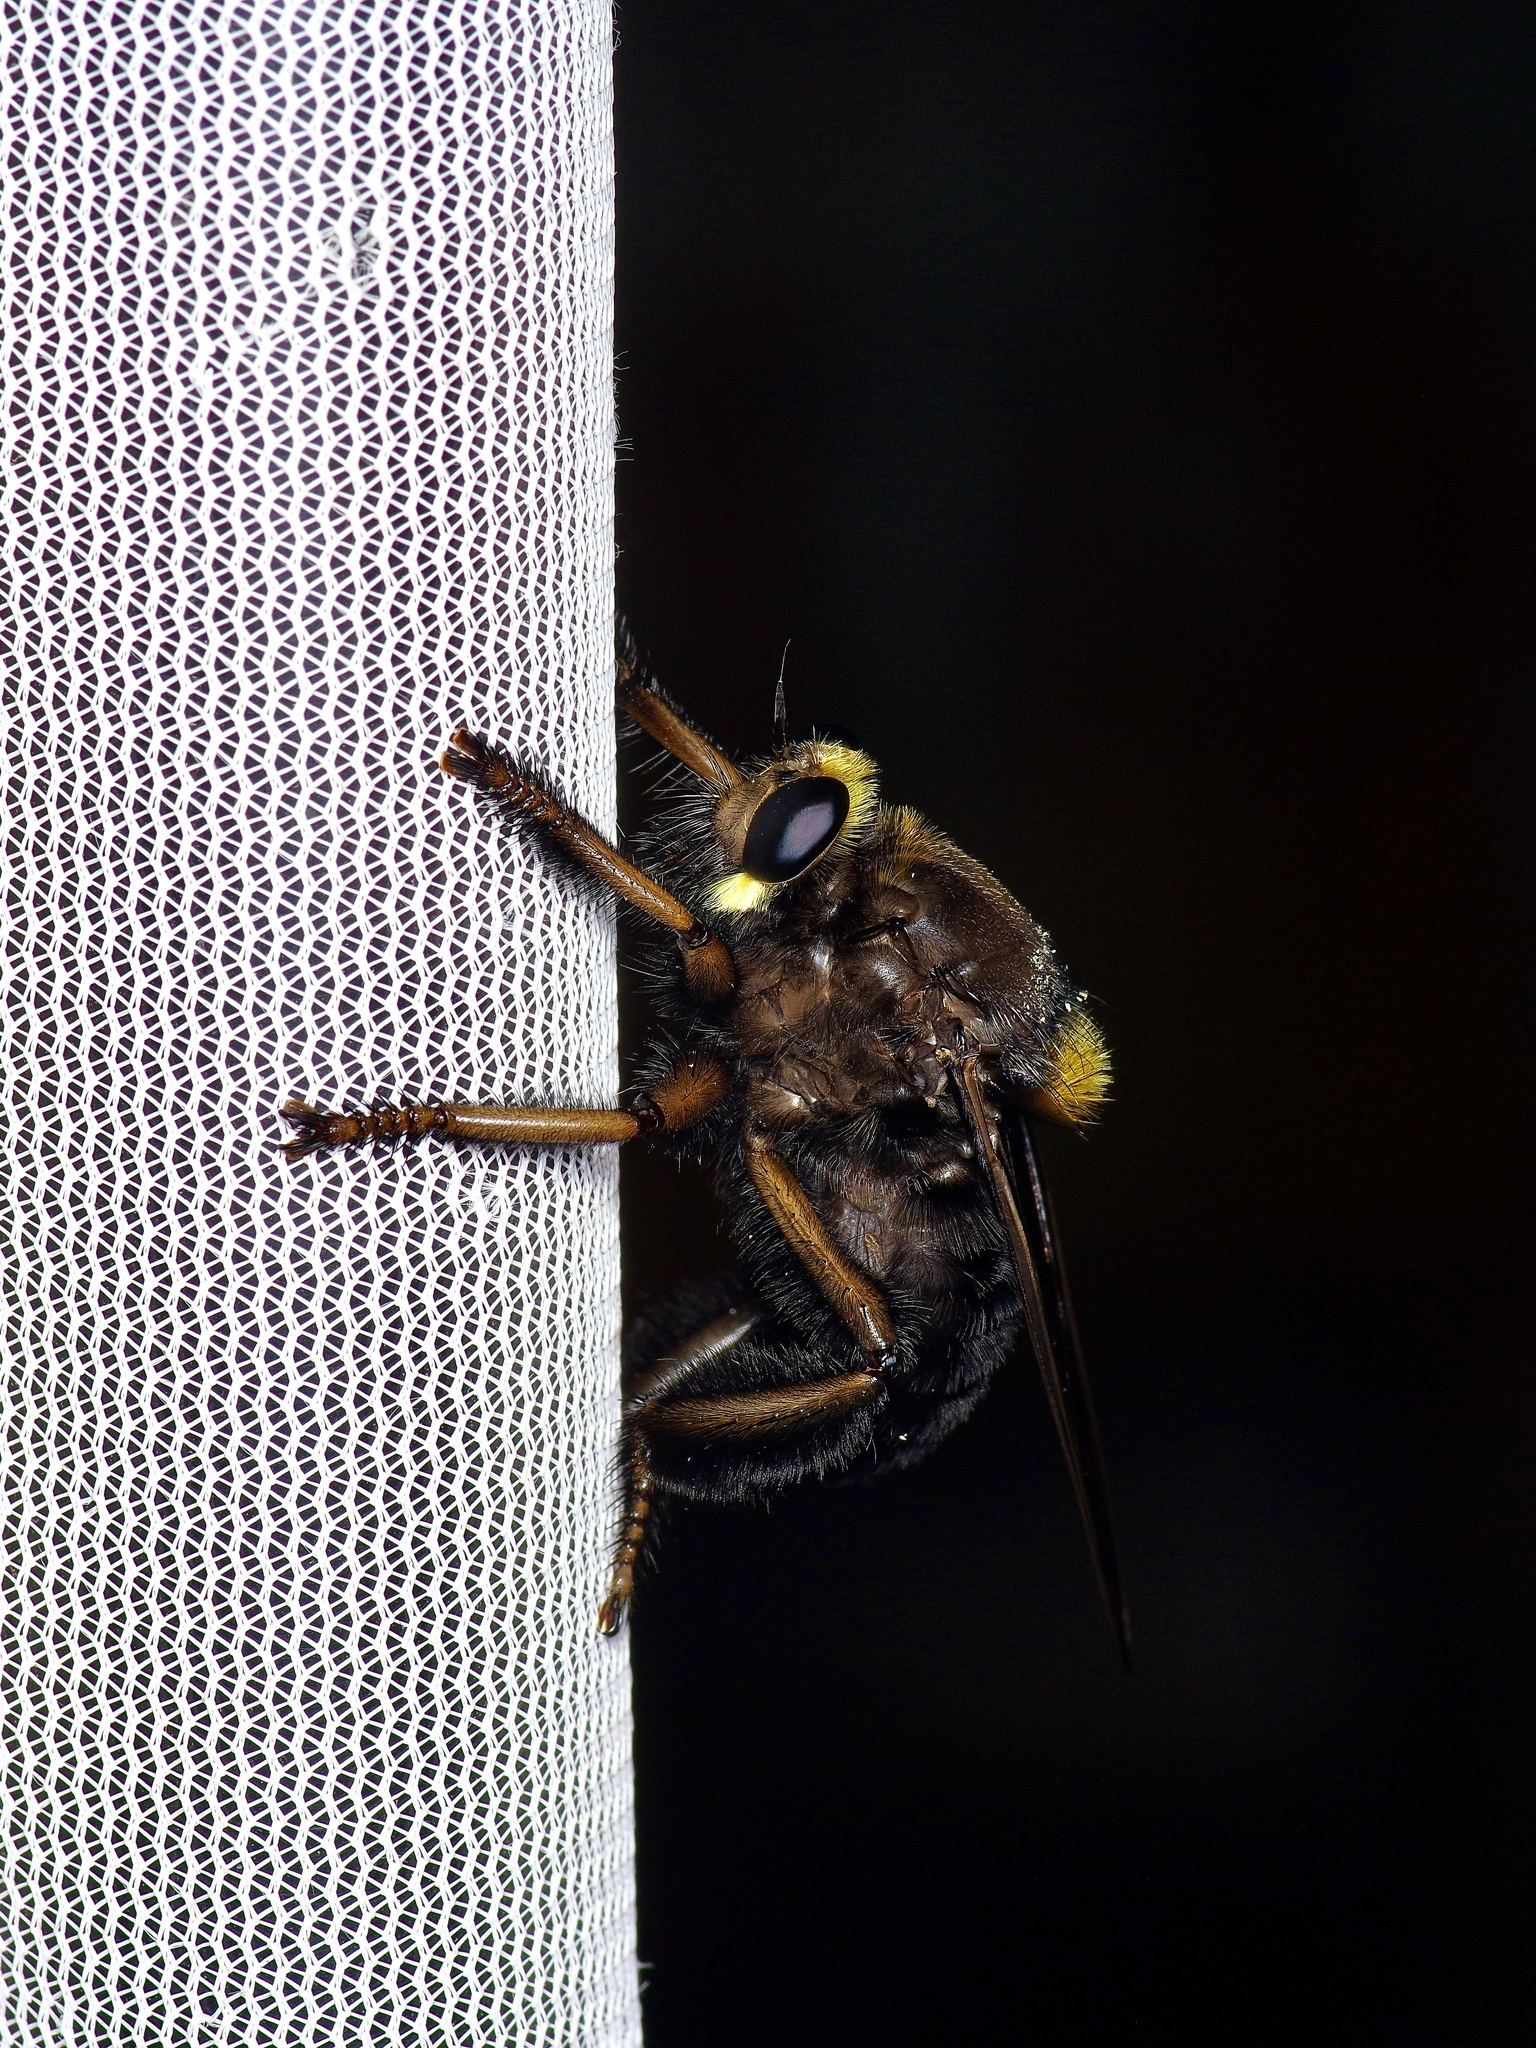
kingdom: Animalia
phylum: Arthropoda
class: Insecta
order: Diptera
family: Asilidae
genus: Mallophora
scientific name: Mallophora leschenaultii
